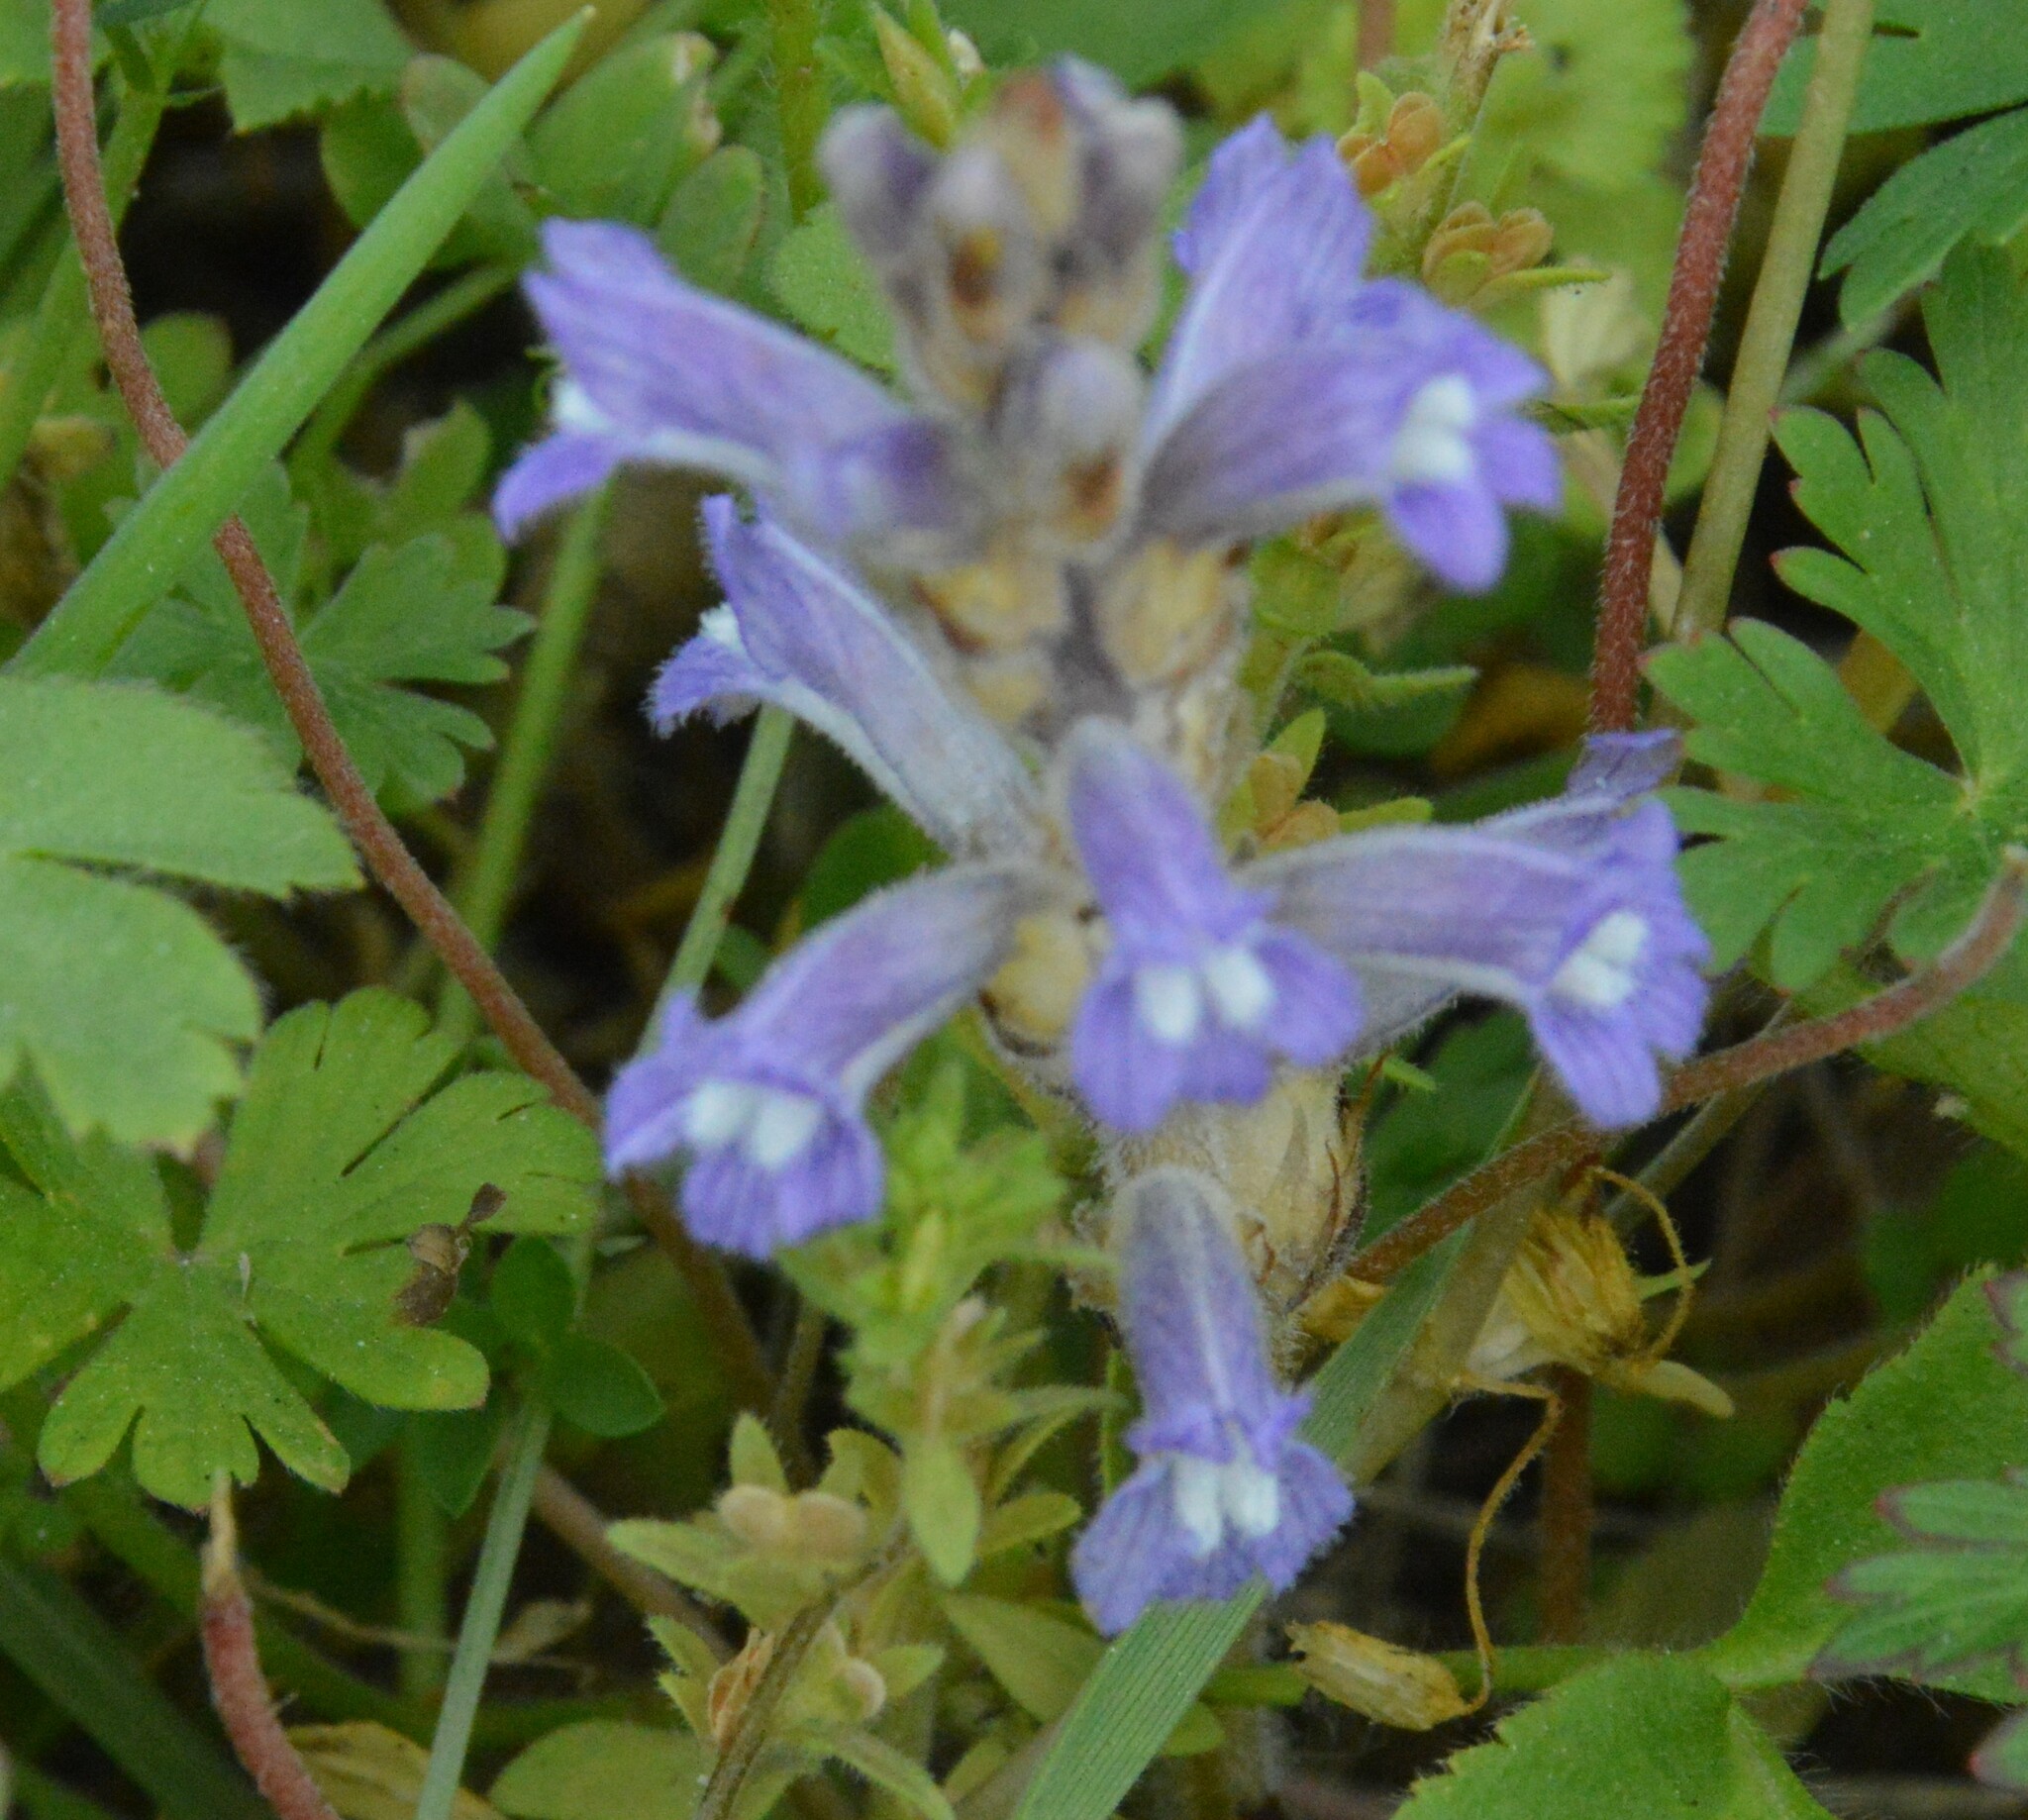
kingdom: Plantae
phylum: Tracheophyta
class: Magnoliopsida
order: Lamiales
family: Orobanchaceae
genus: Phelipanche
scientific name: Phelipanche mutelii
